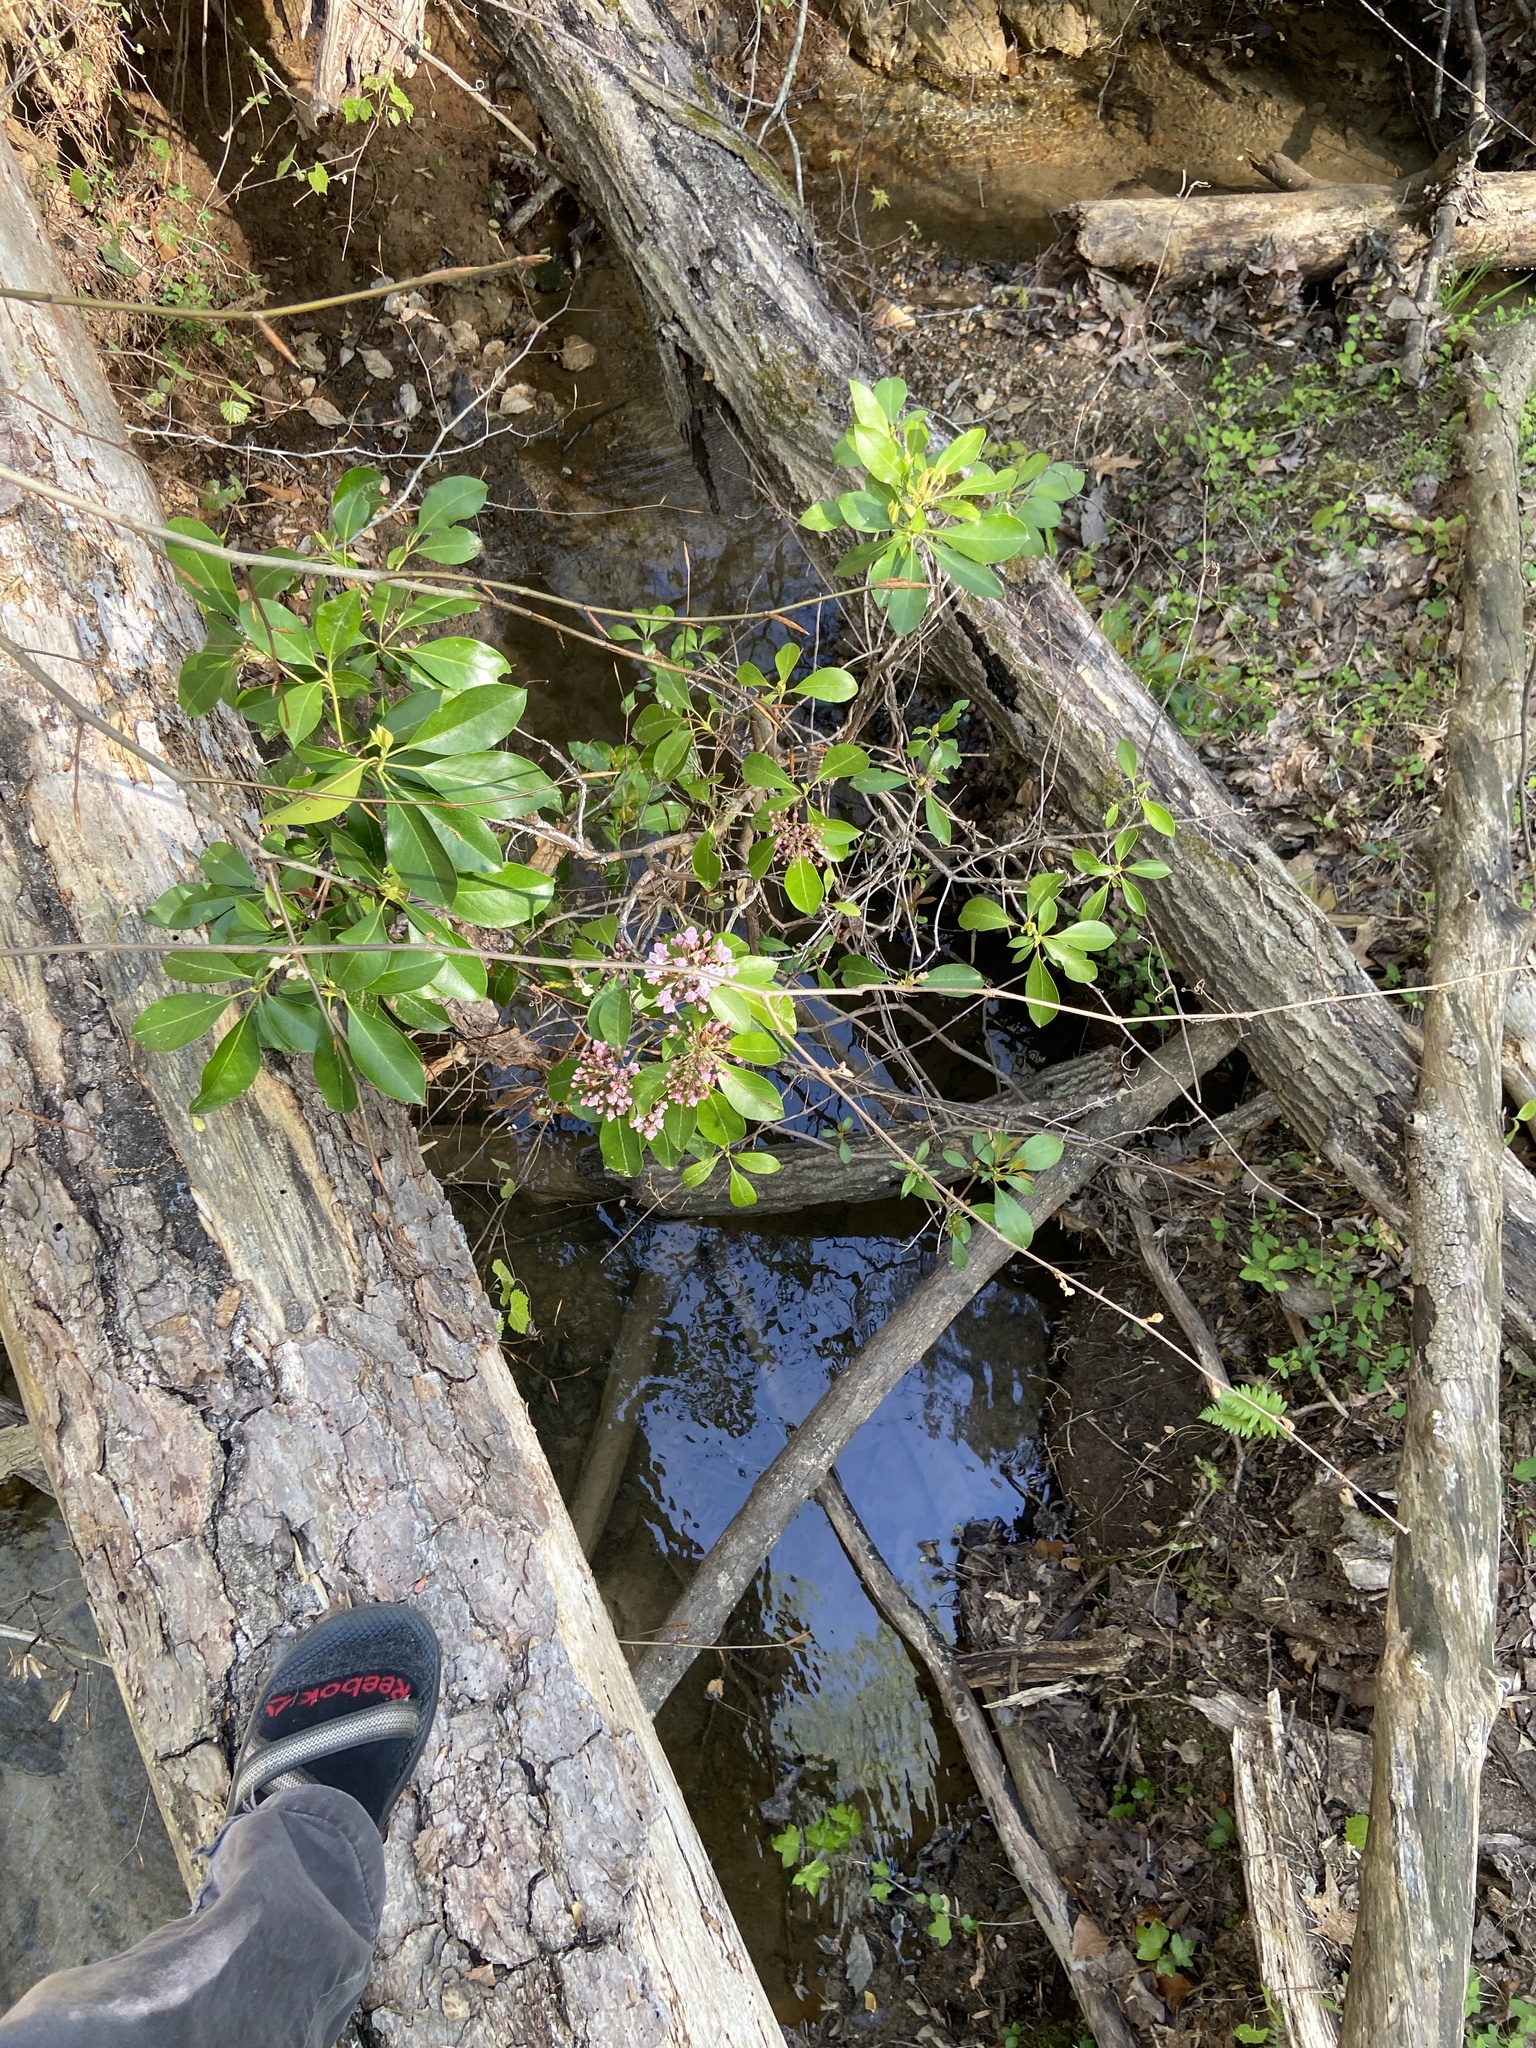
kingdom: Plantae
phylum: Tracheophyta
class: Magnoliopsida
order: Ericales
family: Ericaceae
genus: Kalmia
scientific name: Kalmia latifolia
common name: Mountain-laurel
